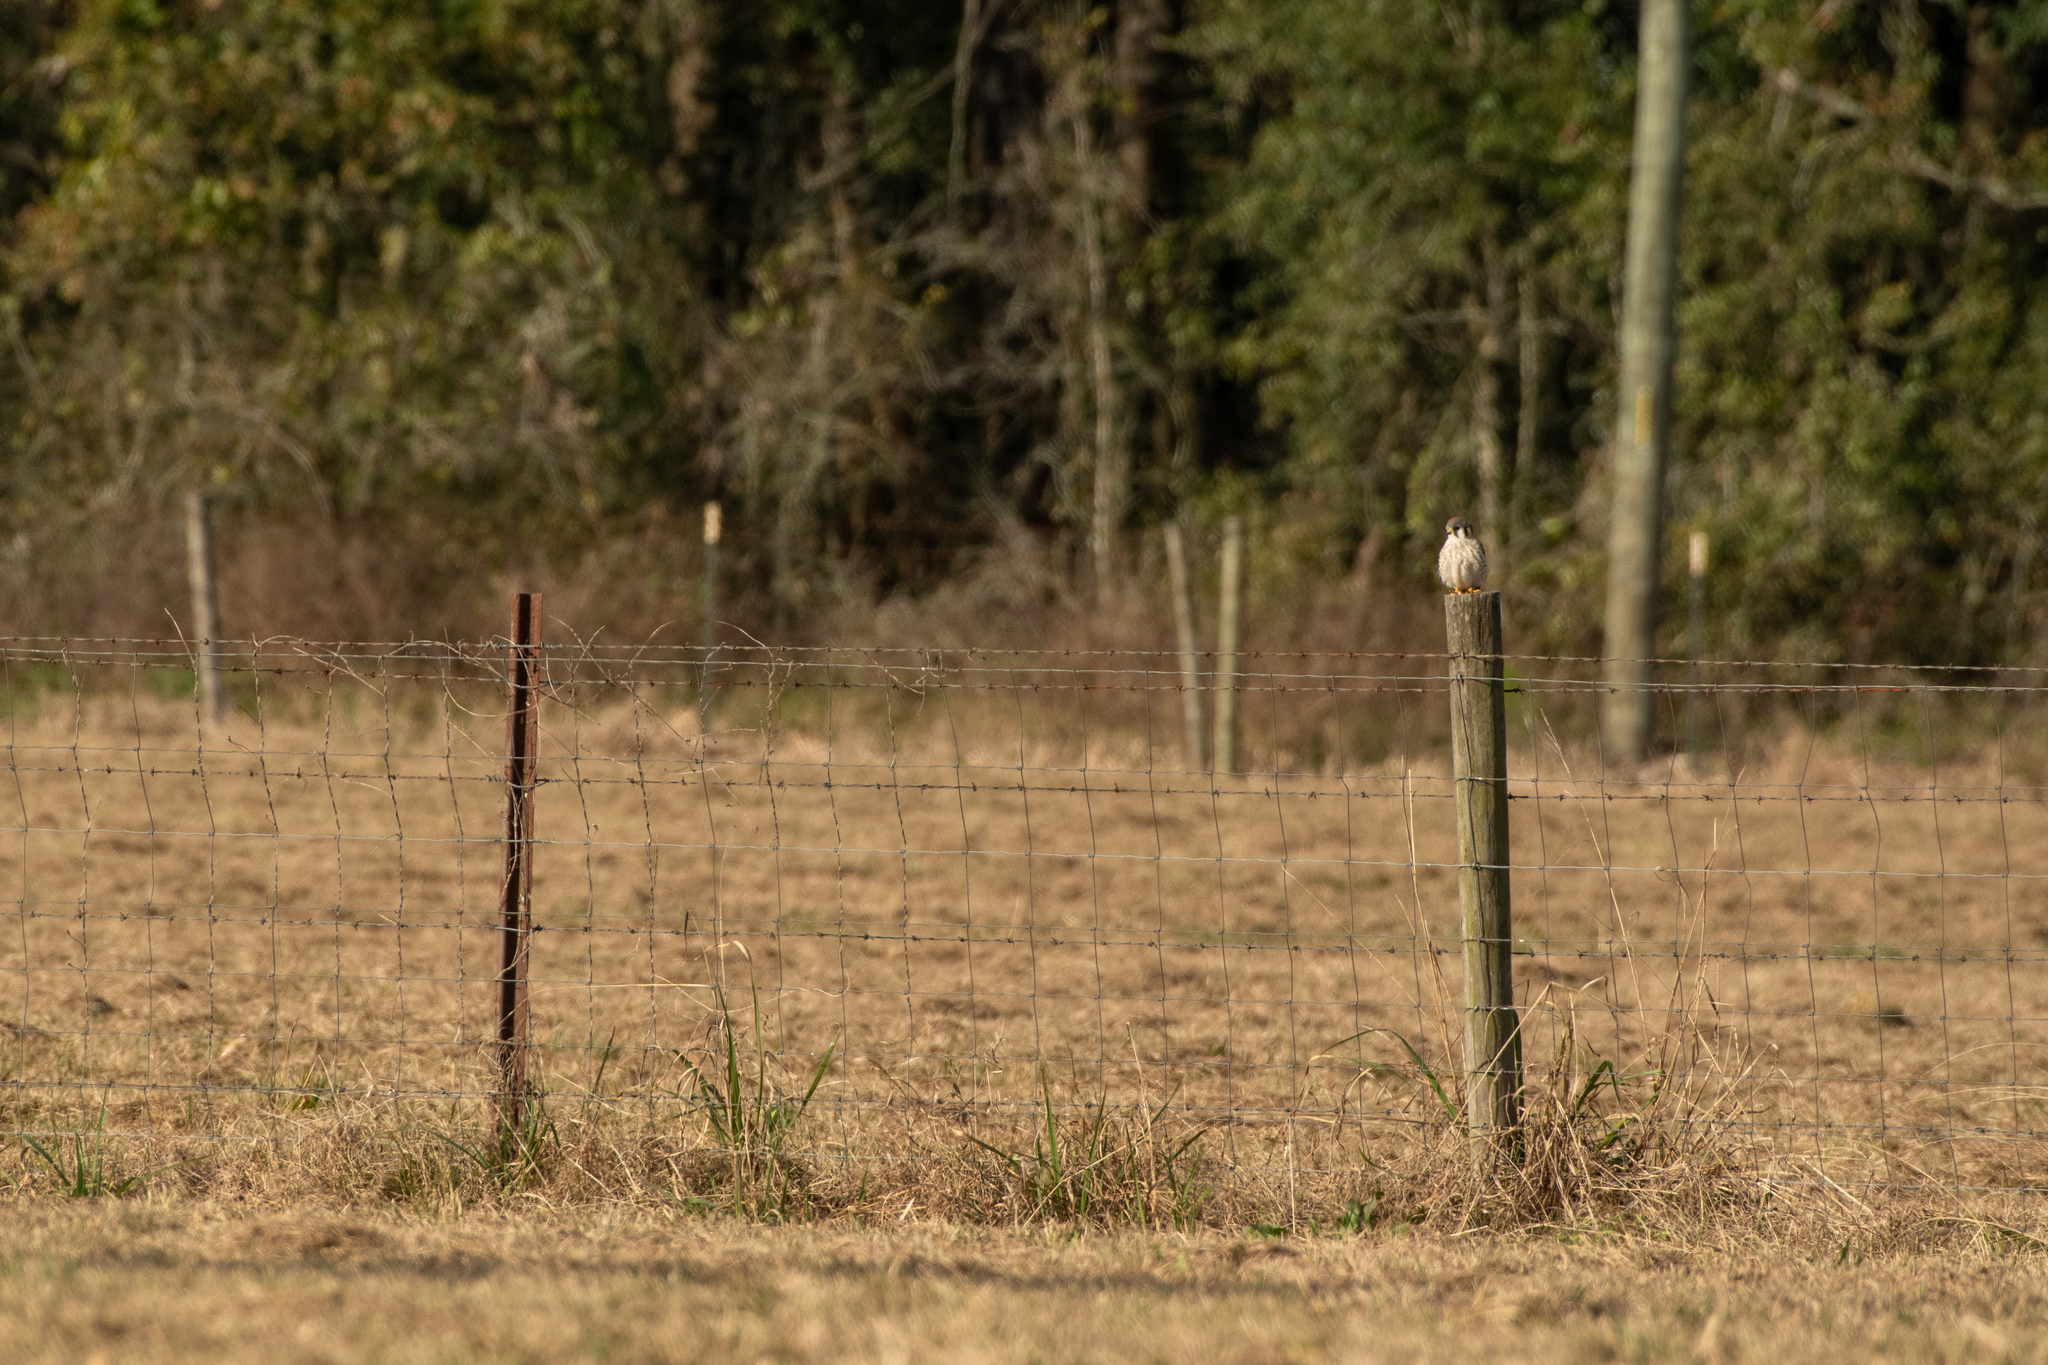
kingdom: Animalia
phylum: Chordata
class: Aves
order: Falconiformes
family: Falconidae
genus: Falco
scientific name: Falco sparverius
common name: American kestrel
